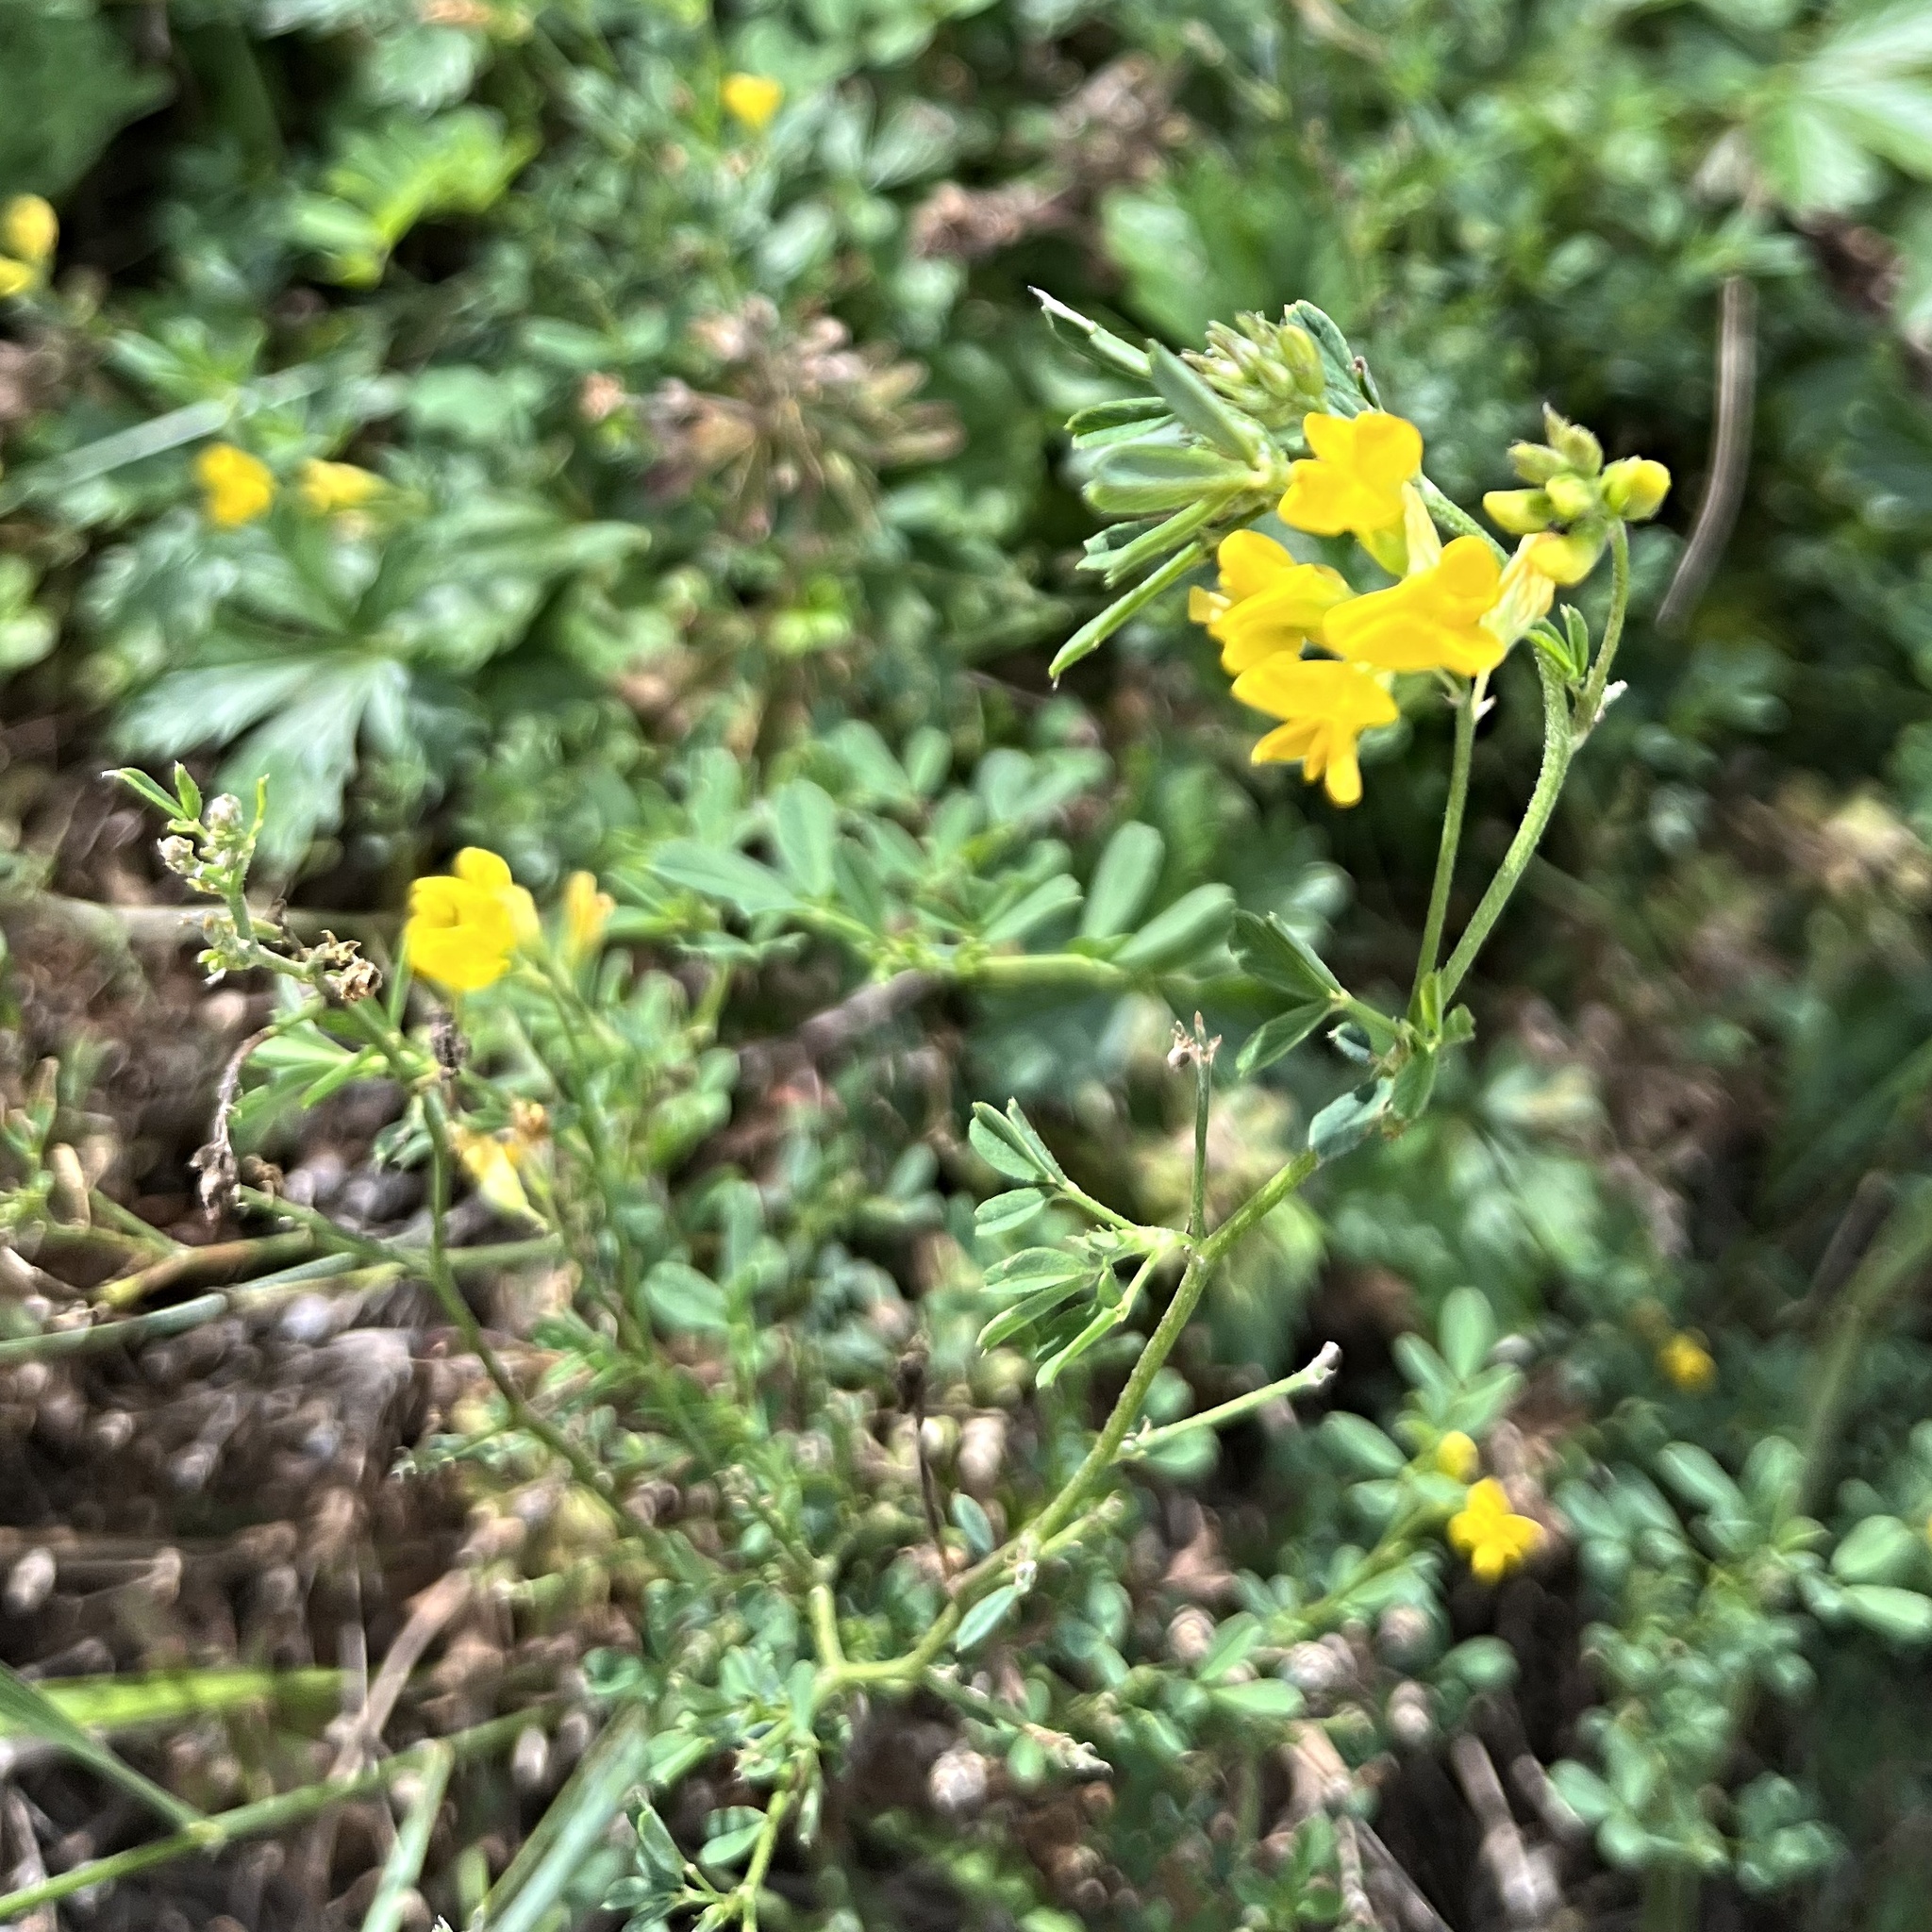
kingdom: Plantae
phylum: Tracheophyta
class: Magnoliopsida
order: Fabales
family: Fabaceae
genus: Medicago
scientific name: Medicago falcata
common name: Sickle medick
